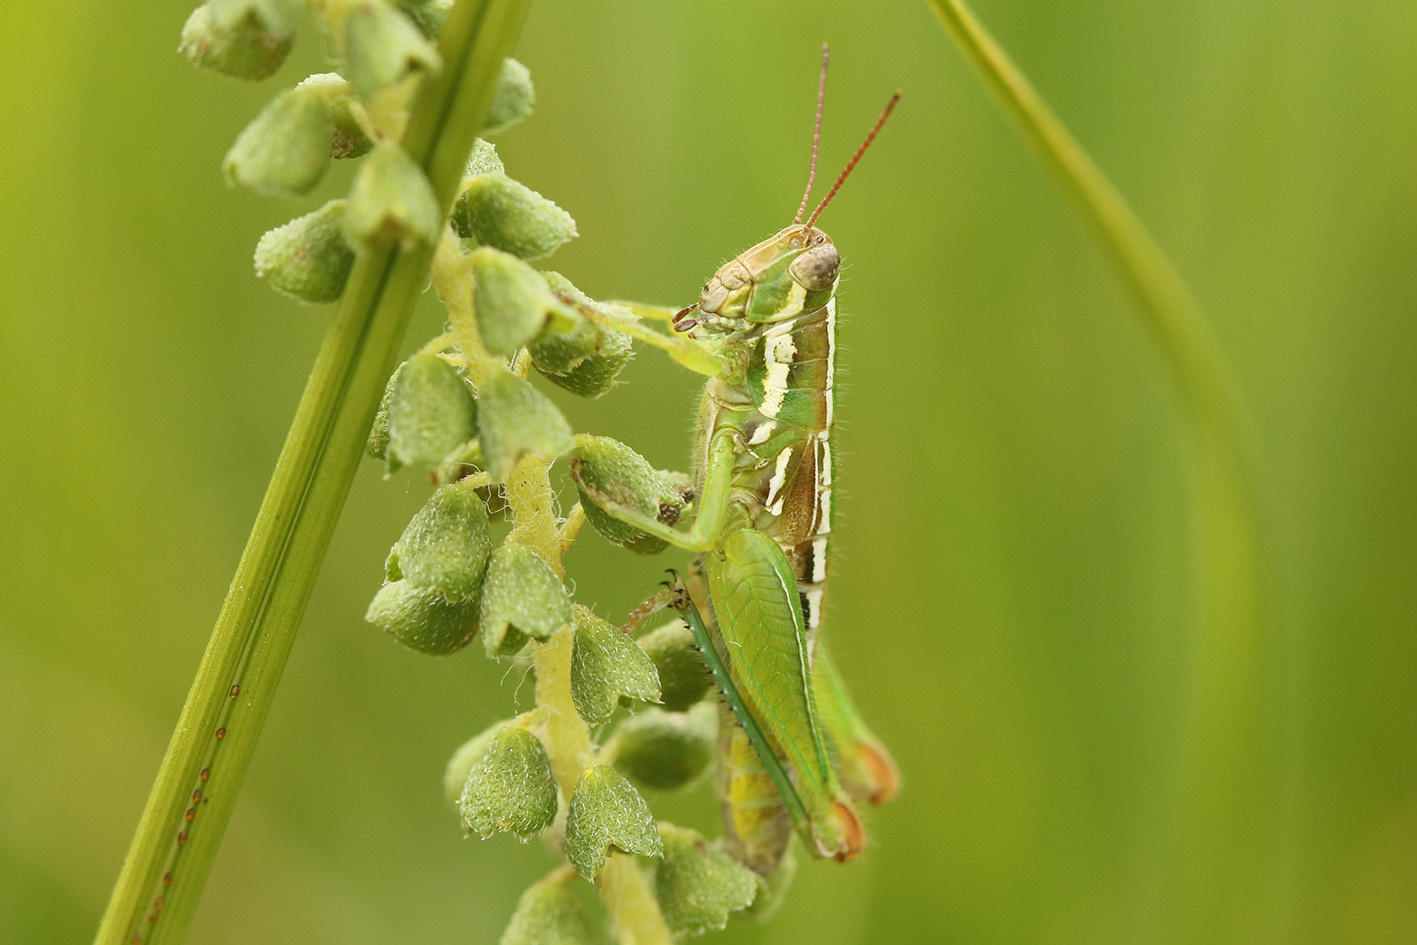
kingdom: Animalia
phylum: Arthropoda
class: Insecta
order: Orthoptera
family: Acrididae
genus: Neopedies
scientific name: Neopedies brunneri
